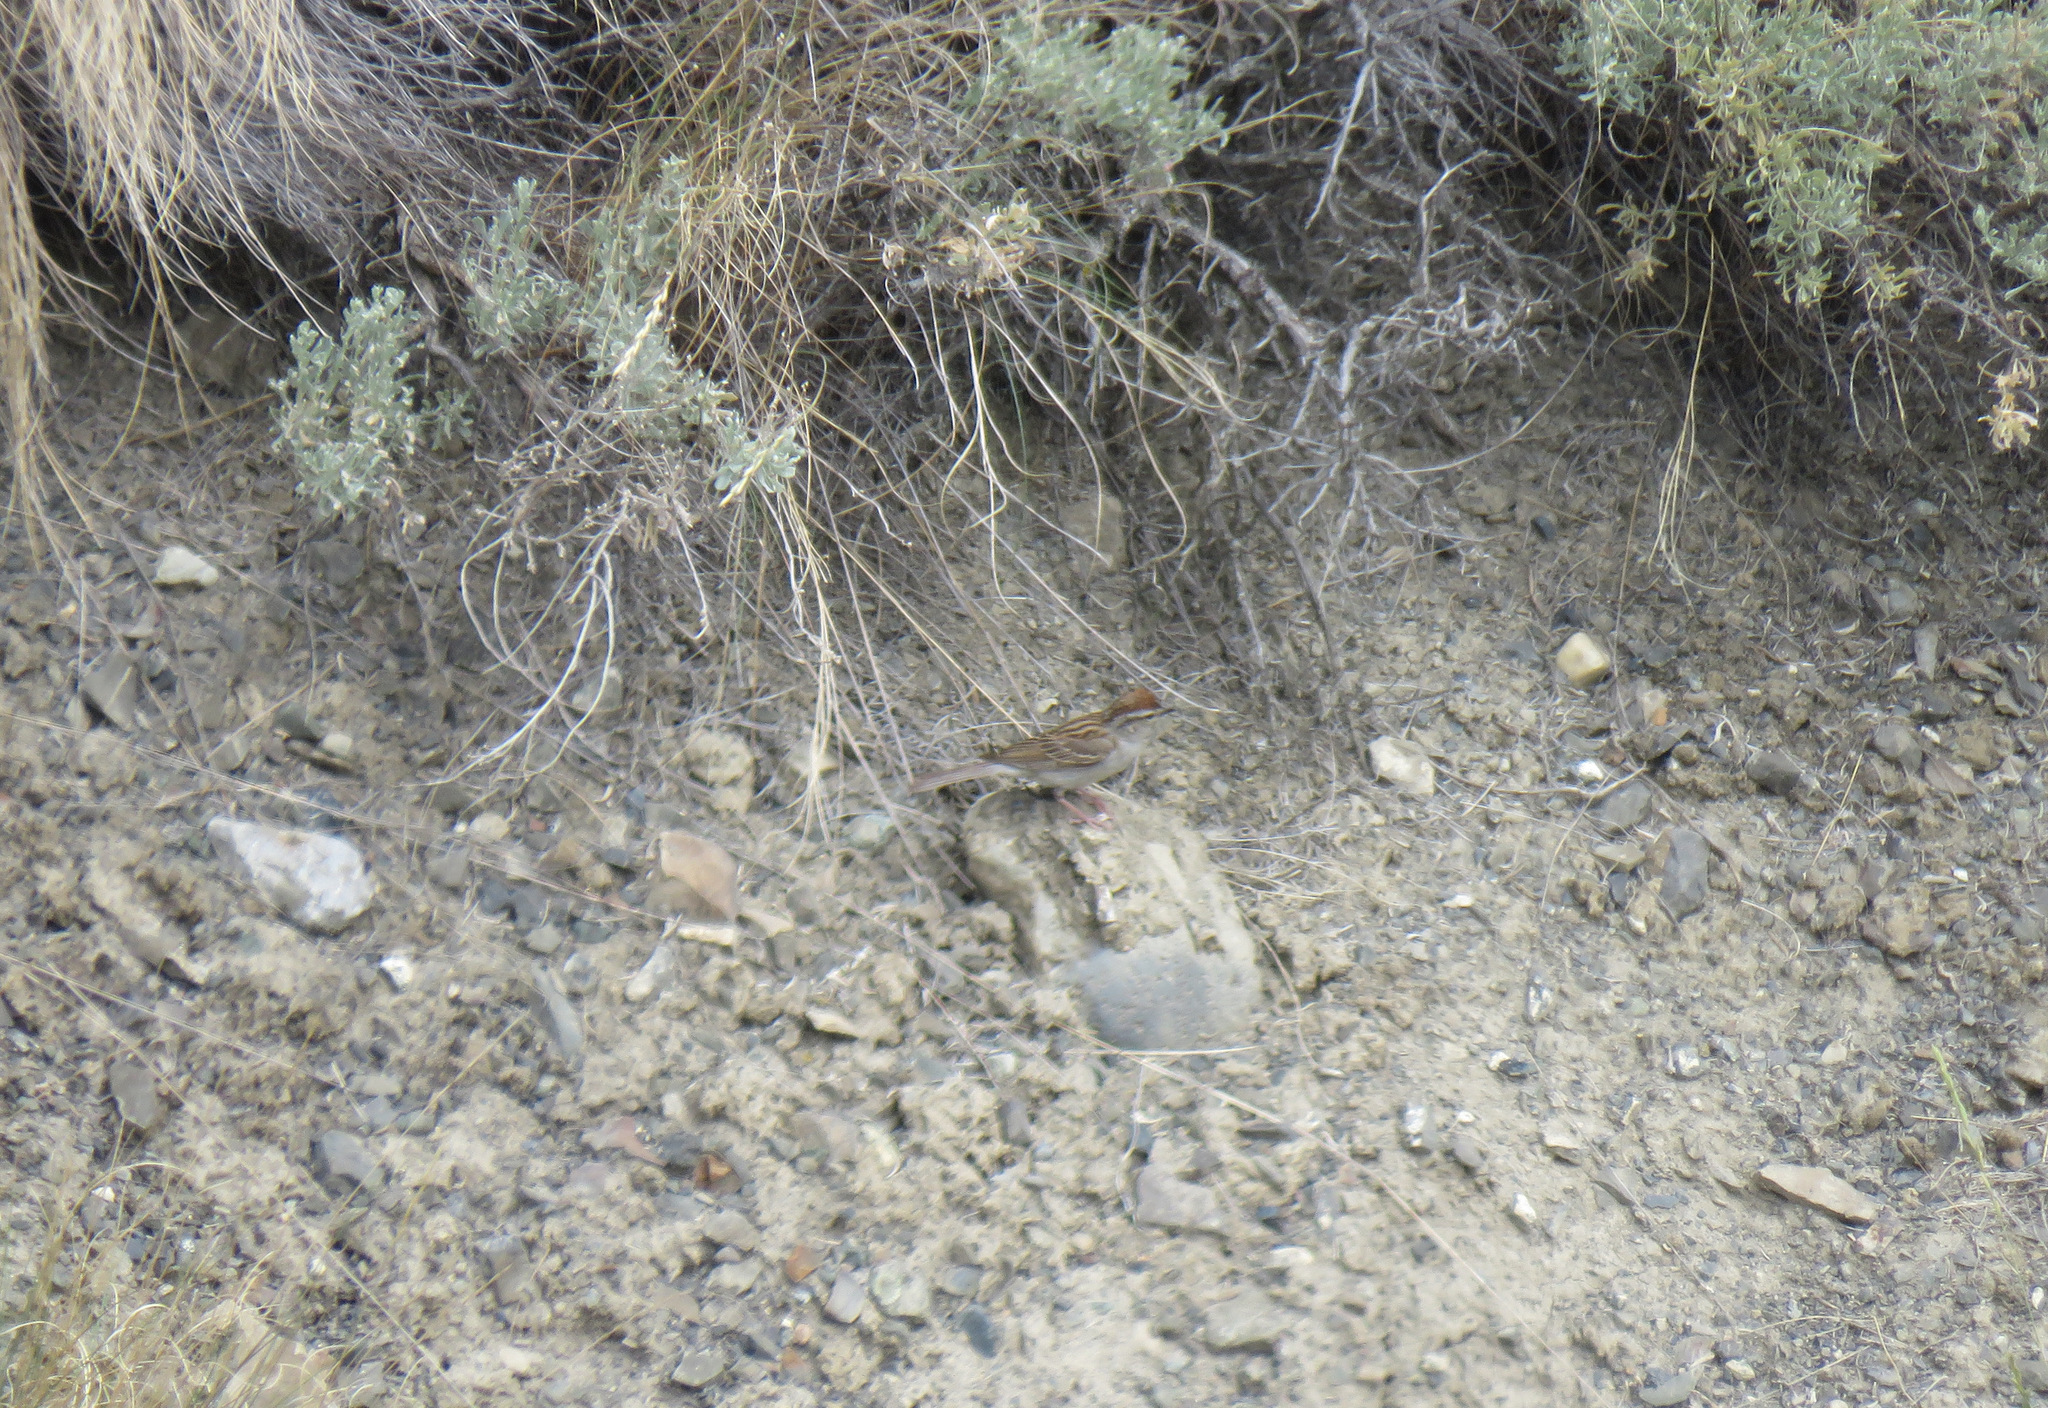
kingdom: Animalia
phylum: Chordata
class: Aves
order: Passeriformes
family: Passerellidae
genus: Spizella
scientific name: Spizella passerina
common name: Chipping sparrow
